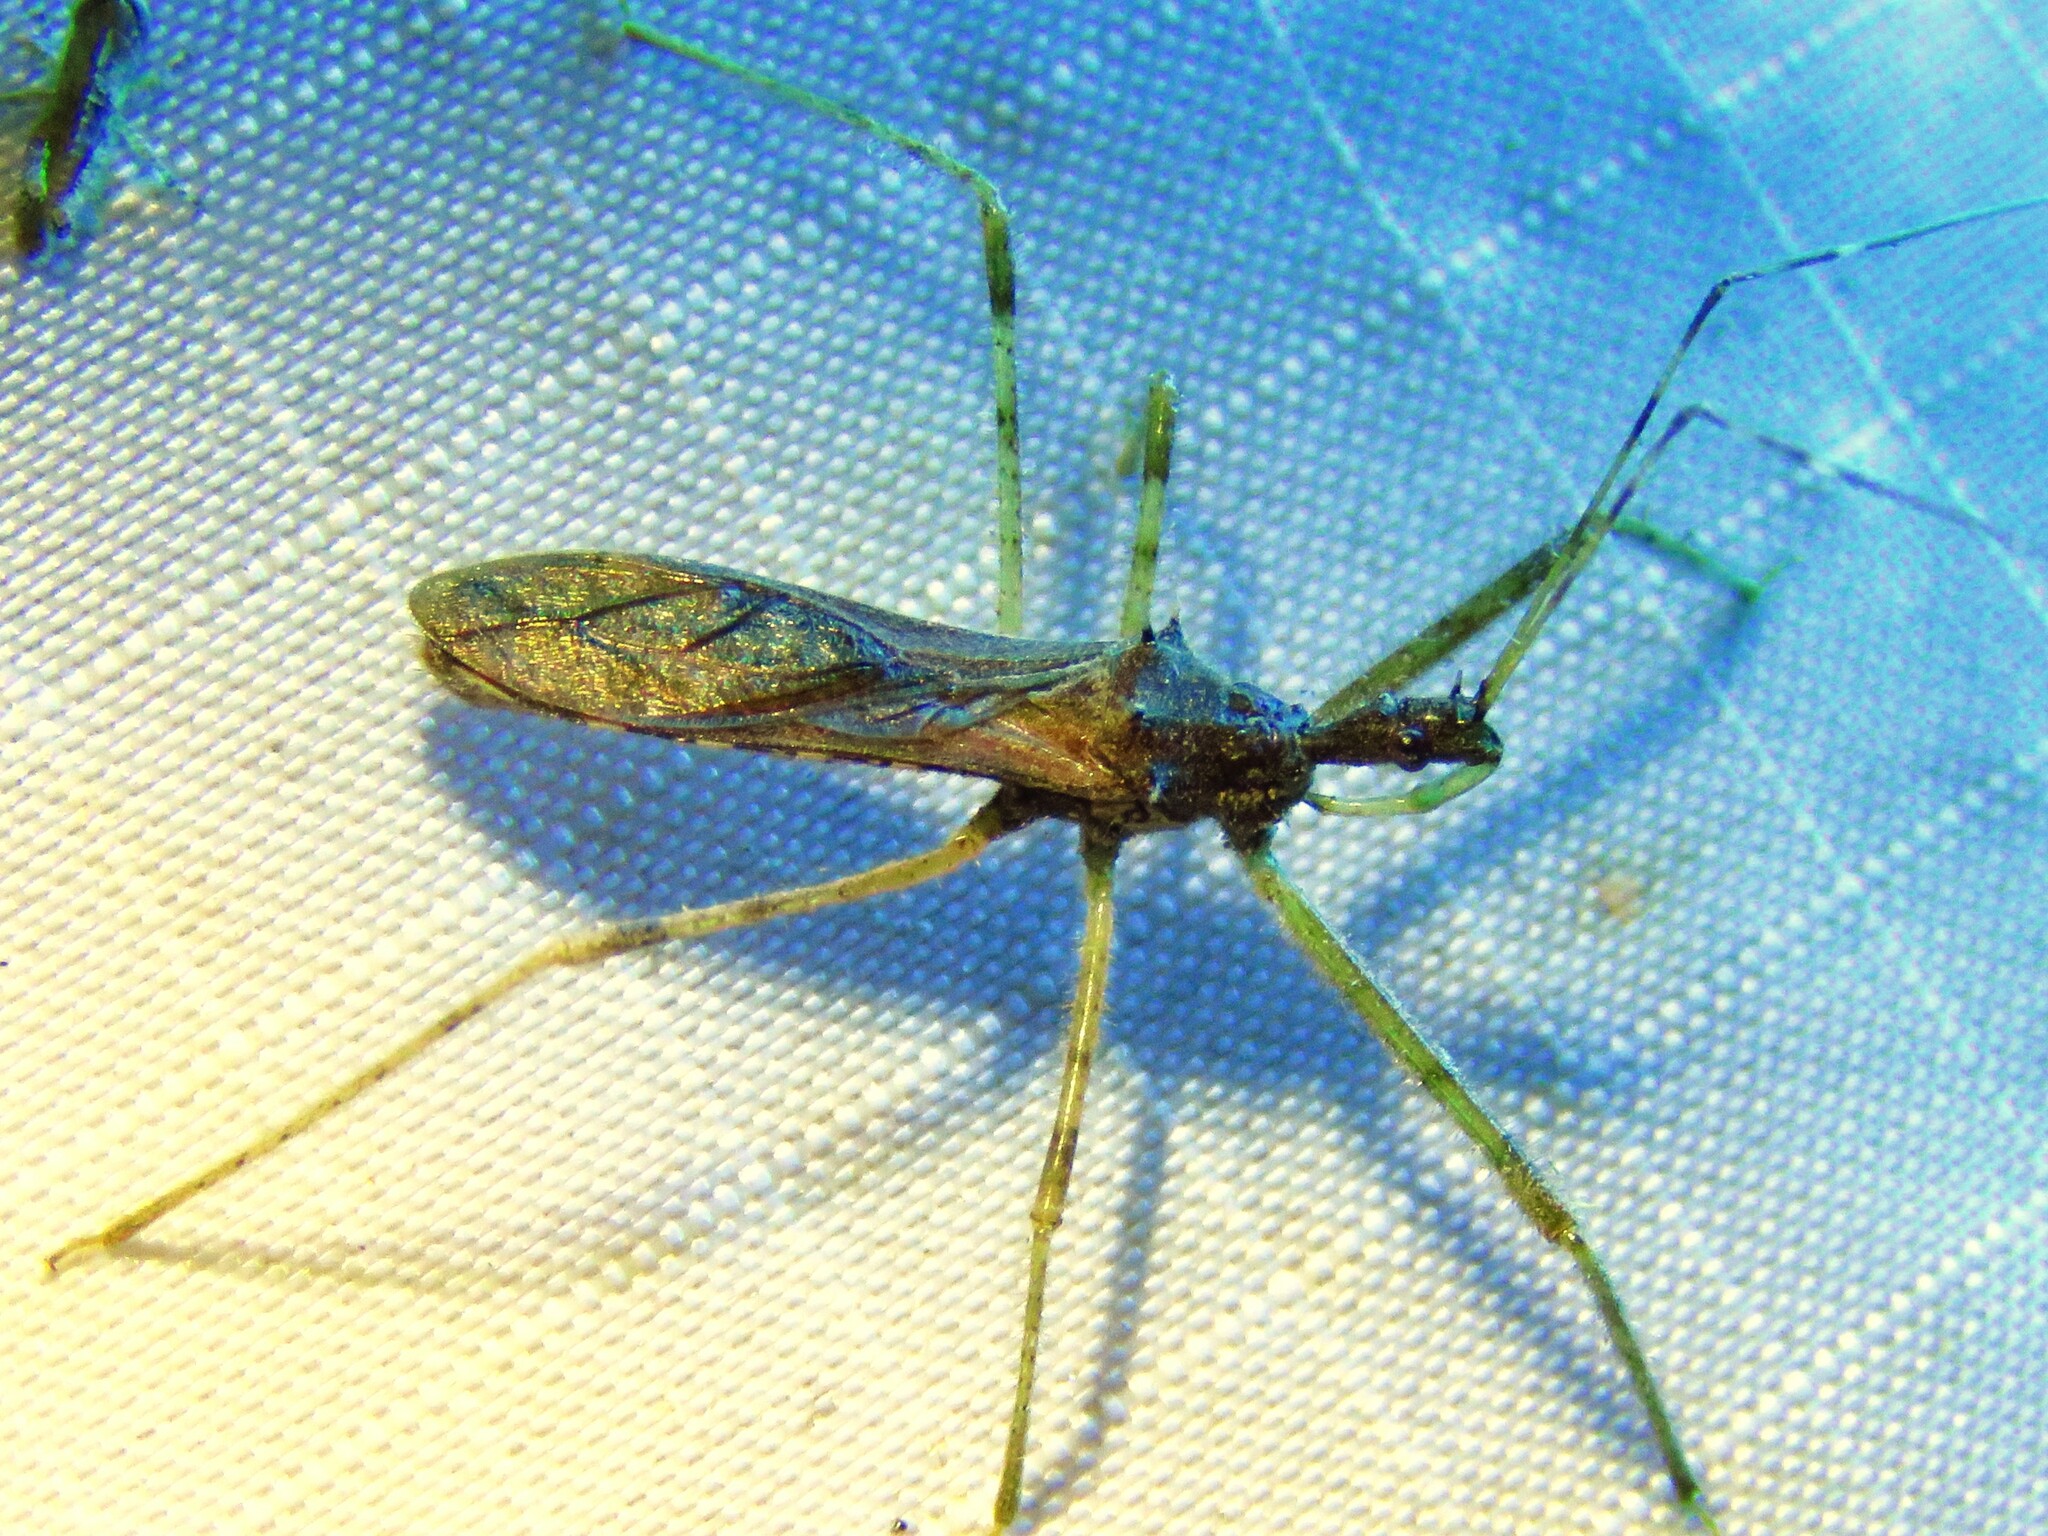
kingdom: Animalia
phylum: Arthropoda
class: Insecta
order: Hemiptera
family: Reduviidae
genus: Rocconota
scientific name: Rocconota annulicornis
